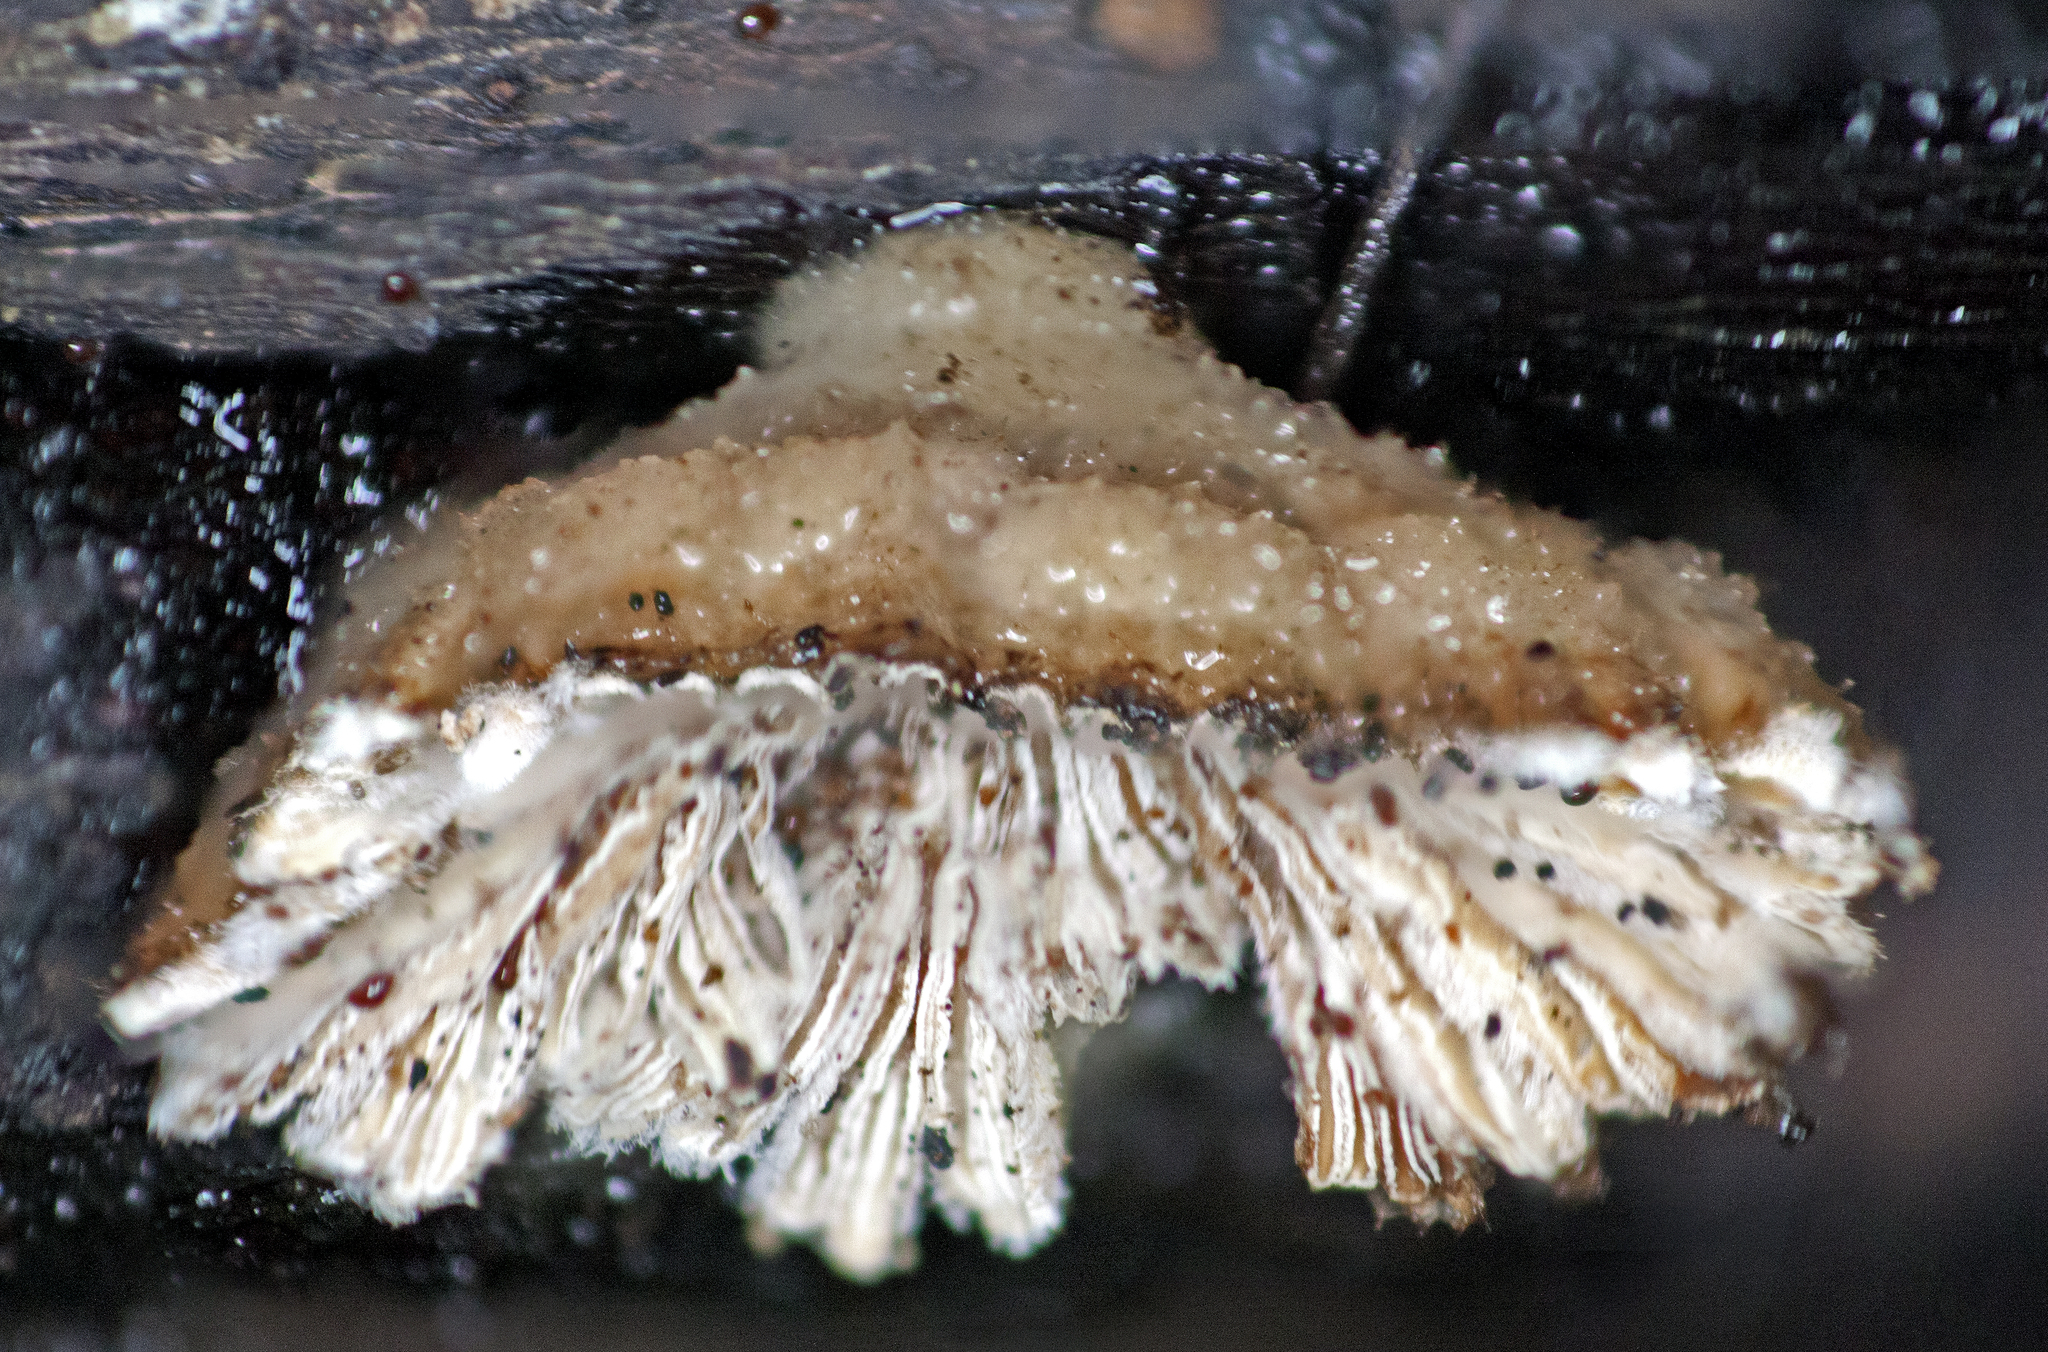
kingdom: Fungi
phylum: Basidiomycota
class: Agaricomycetes
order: Agaricales
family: Schizophyllaceae
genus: Schizophyllum
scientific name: Schizophyllum commune
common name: Common porecrust
